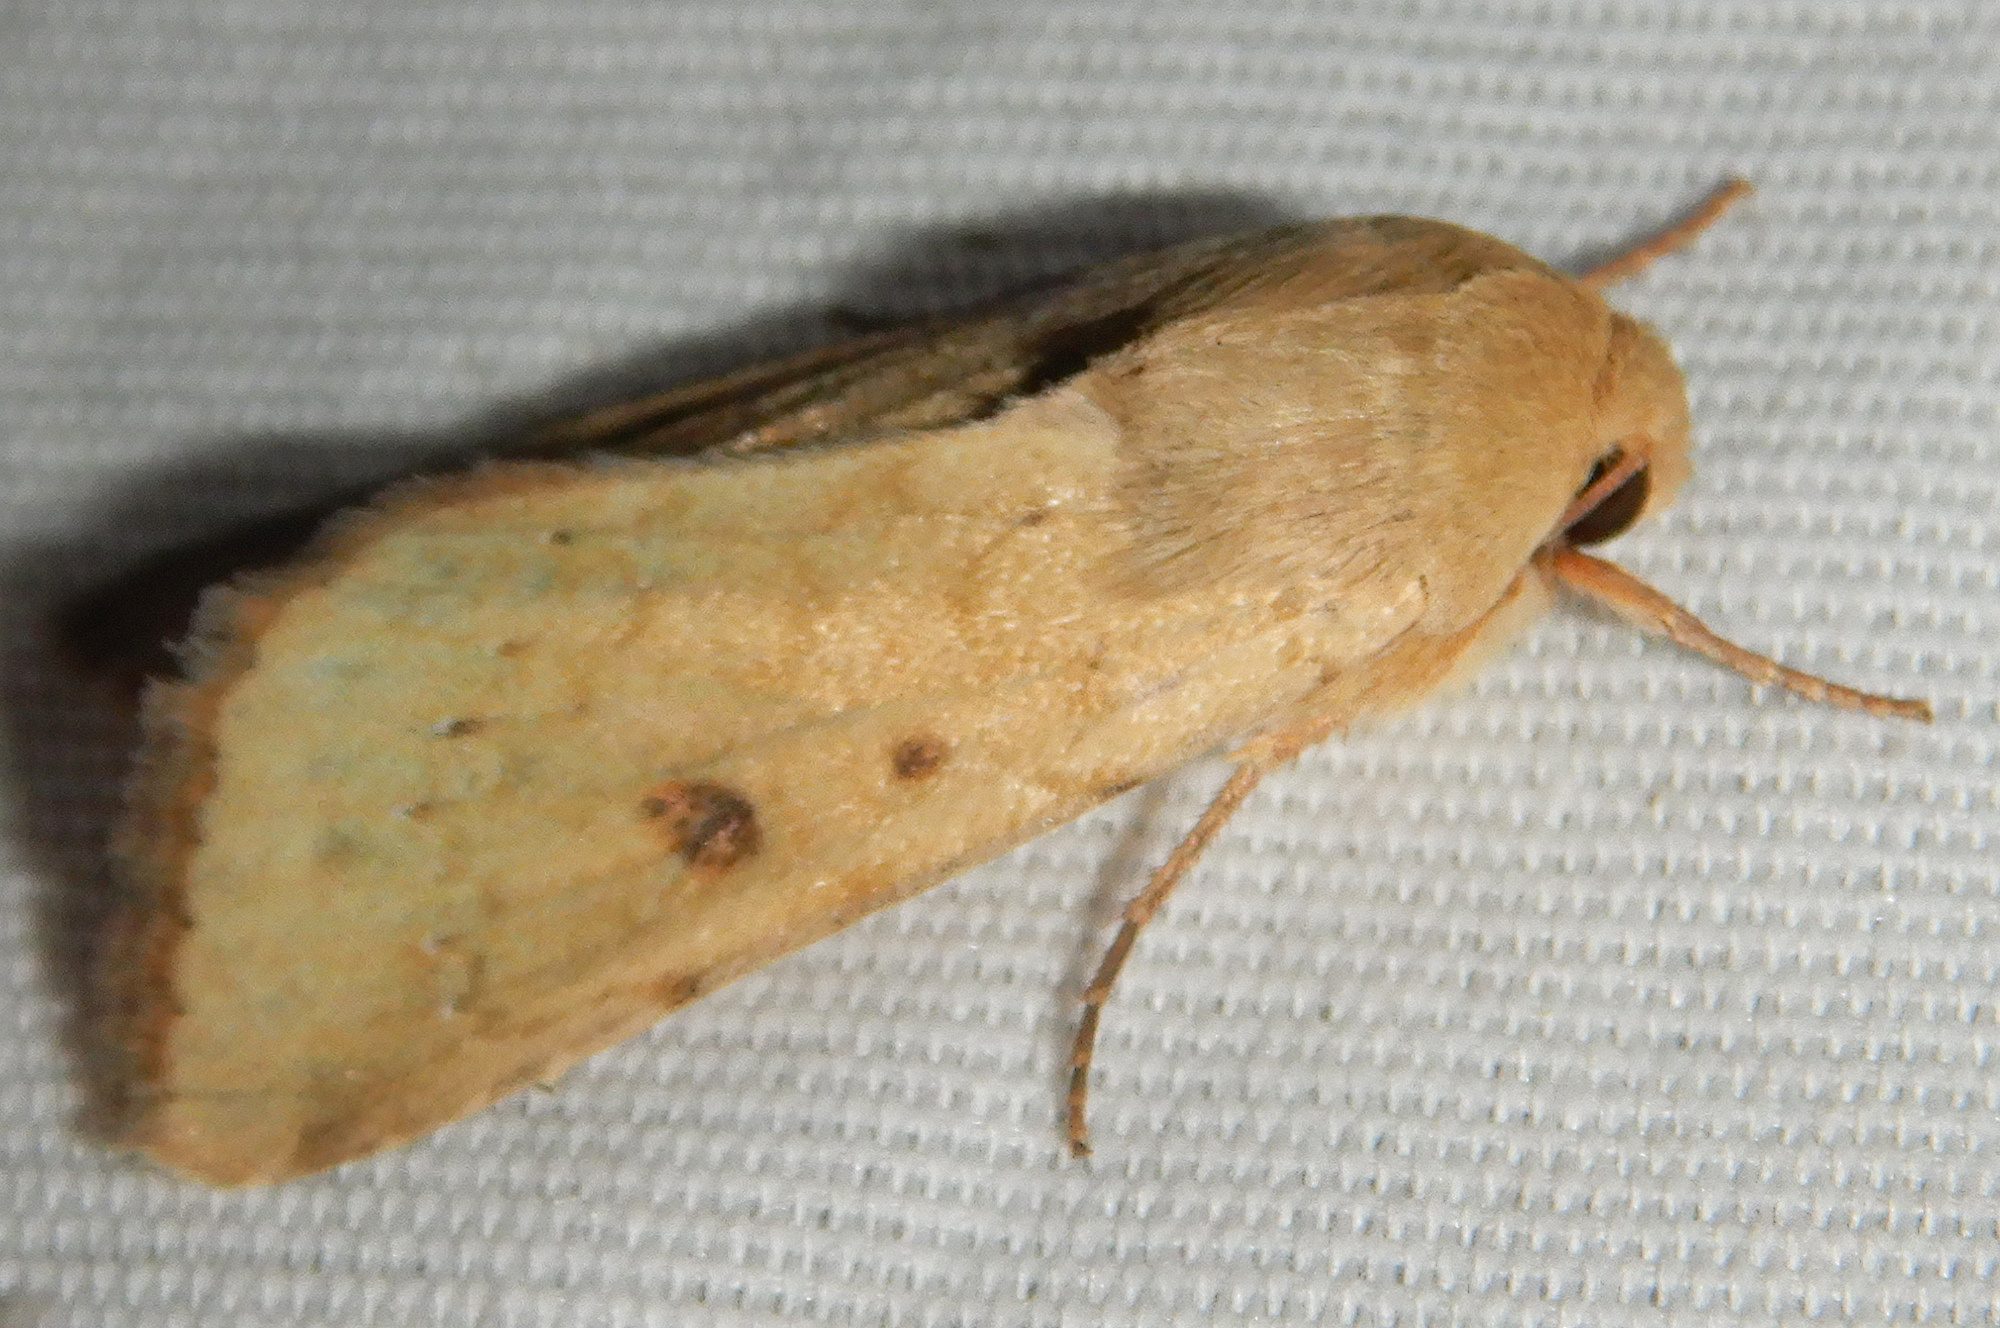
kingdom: Animalia
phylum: Arthropoda
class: Insecta
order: Lepidoptera
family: Noctuidae
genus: Helicoverpa
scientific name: Helicoverpa zea
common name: Bollworm
